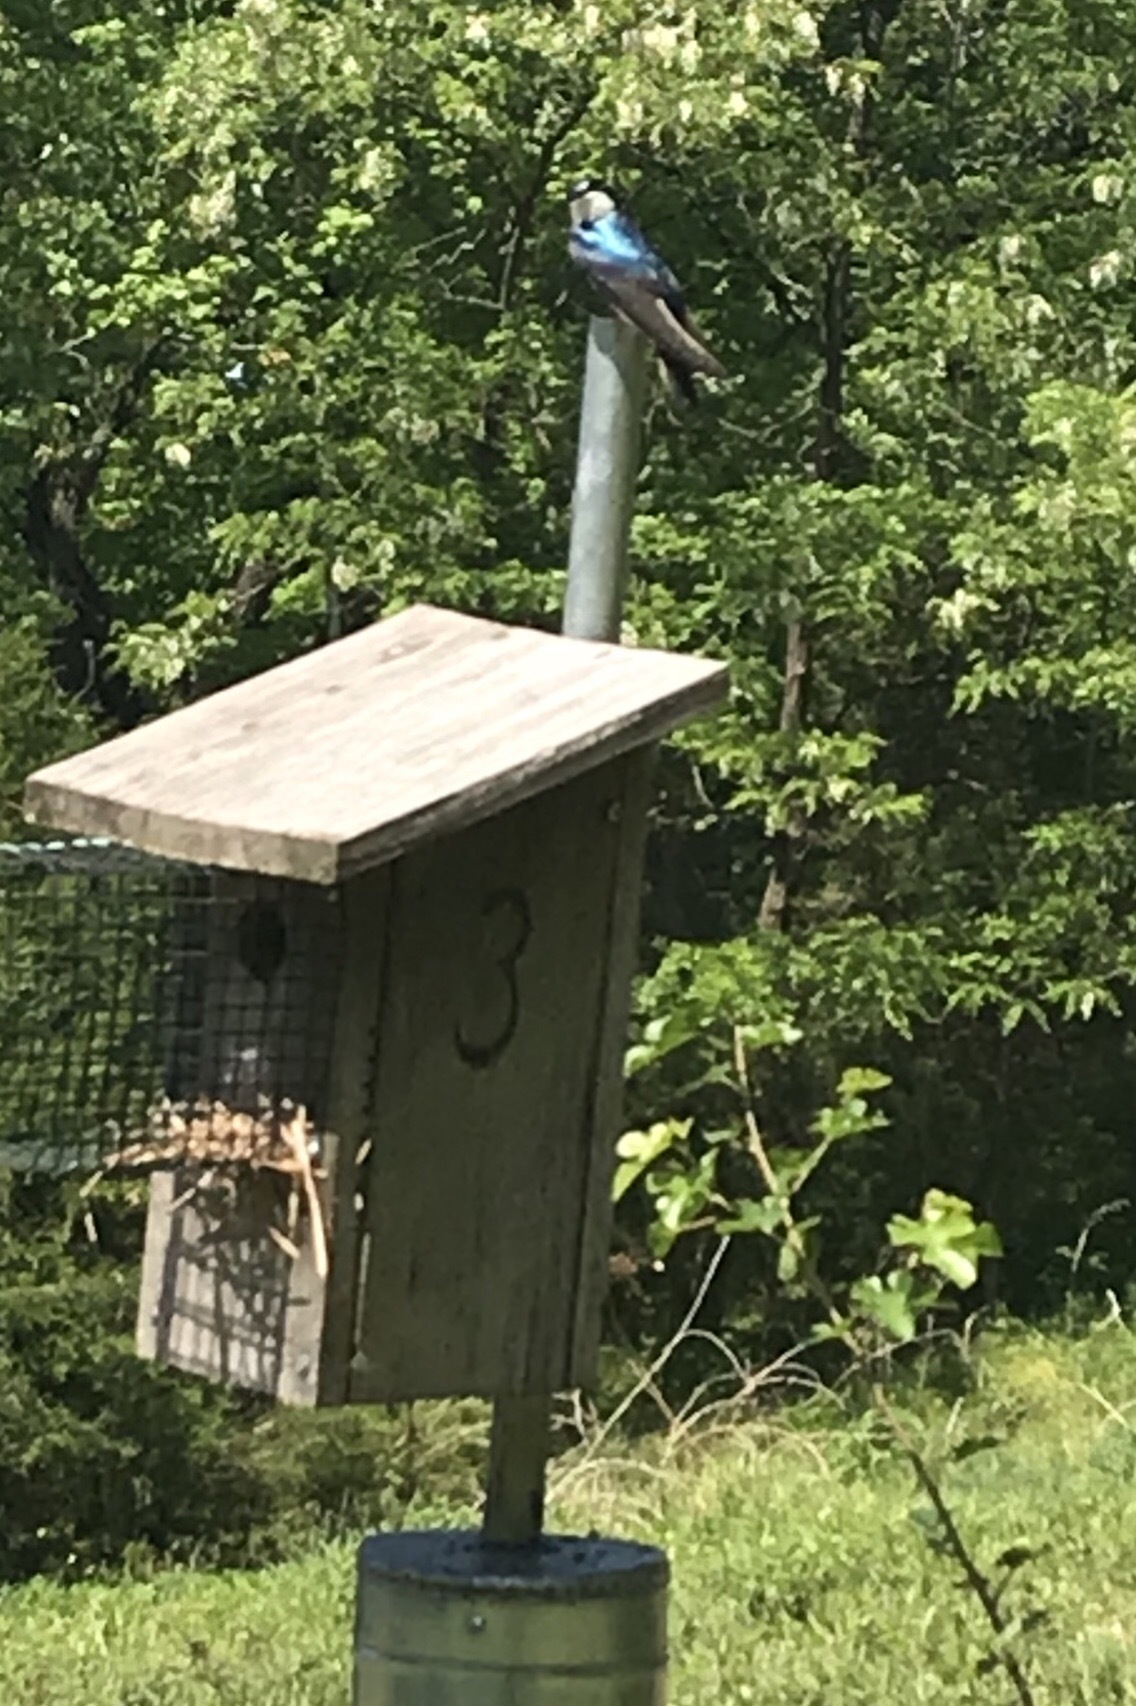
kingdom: Animalia
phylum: Chordata
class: Aves
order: Passeriformes
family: Hirundinidae
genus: Tachycineta
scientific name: Tachycineta bicolor
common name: Tree swallow
